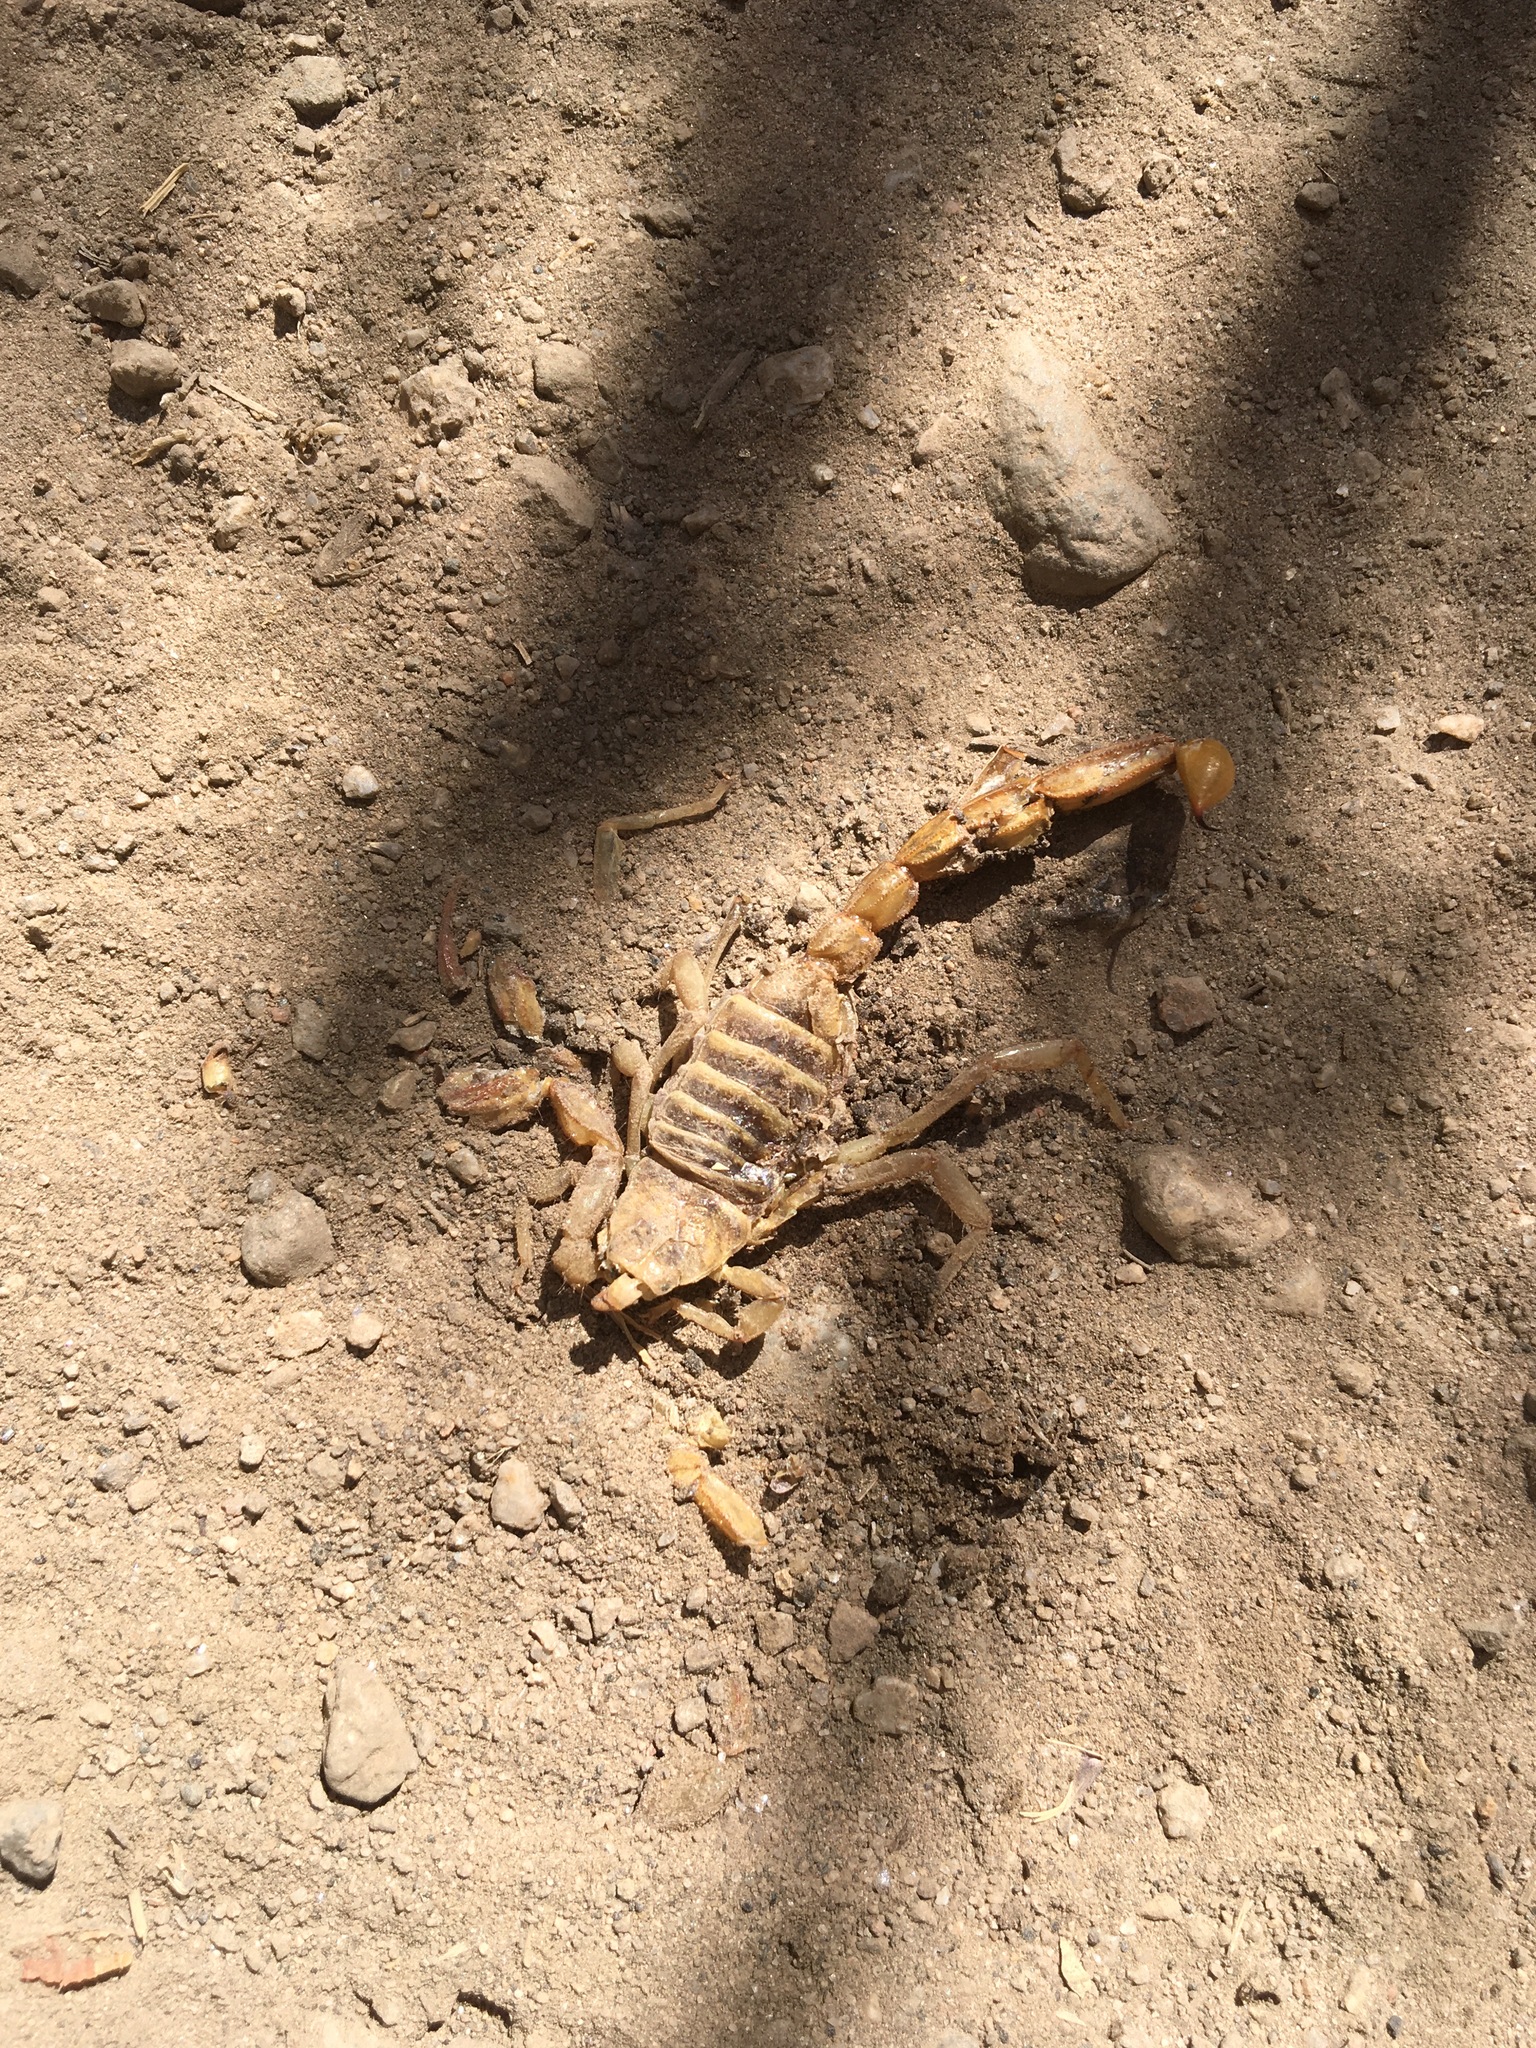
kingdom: Animalia
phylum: Arthropoda
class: Arachnida
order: Scorpiones
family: Vaejovidae
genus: Paruroctonus
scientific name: Paruroctonus boreus
